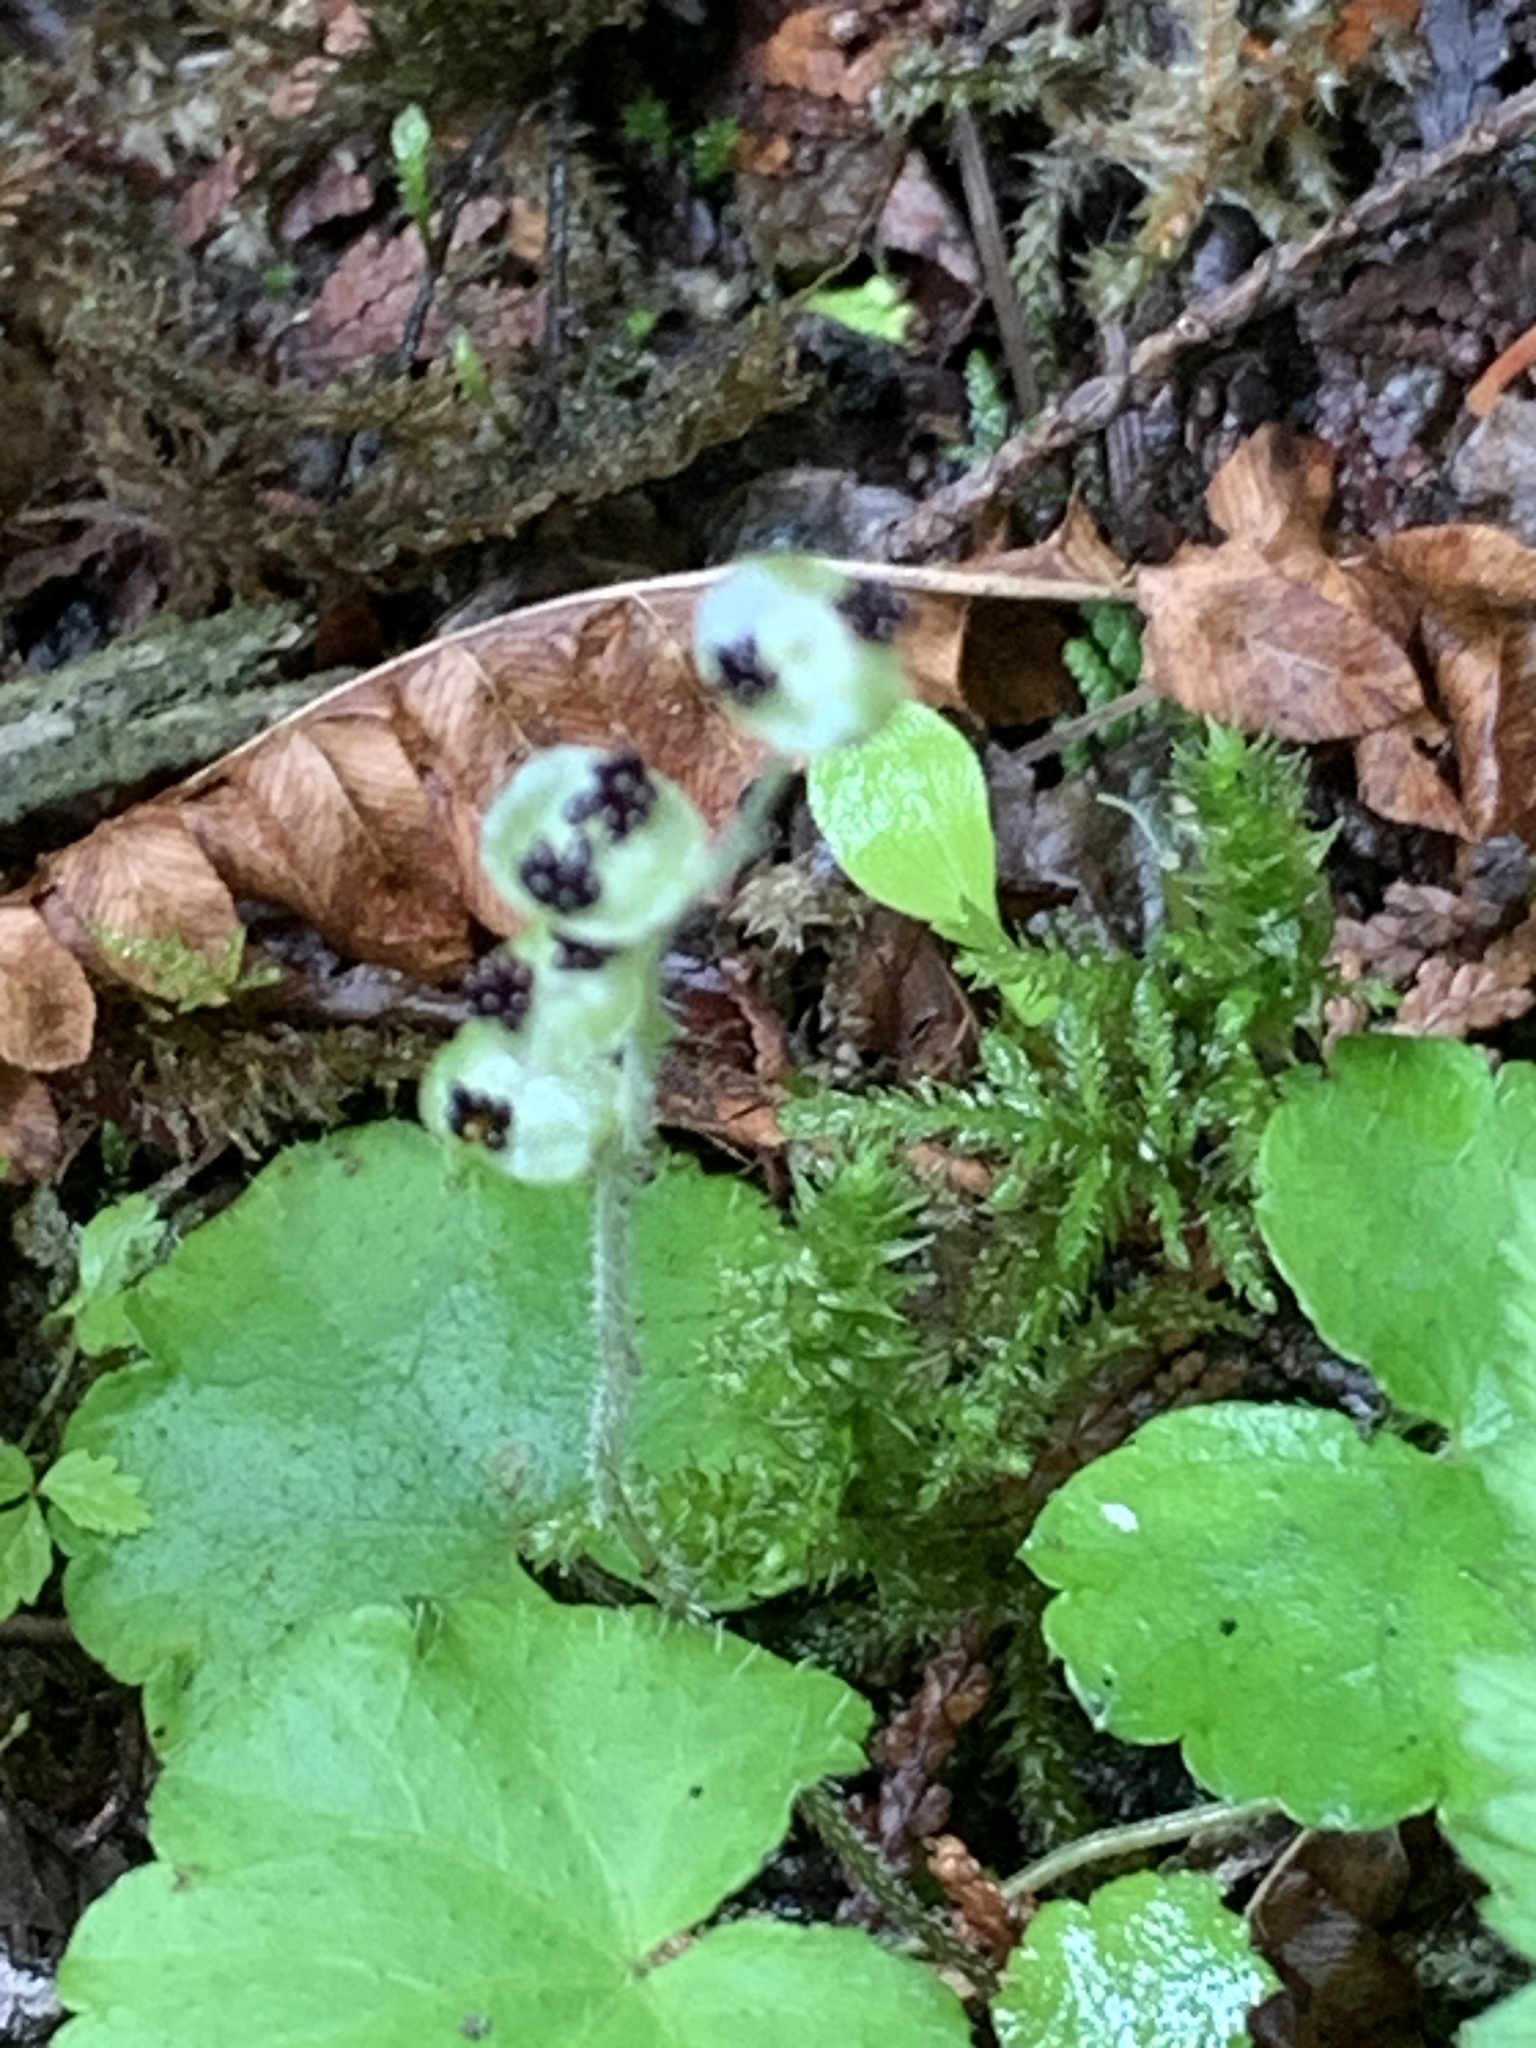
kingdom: Plantae
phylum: Tracheophyta
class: Magnoliopsida
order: Saxifragales
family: Saxifragaceae
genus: Mitella
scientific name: Mitella nuda
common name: Bare-stemmed bishop's-cap
